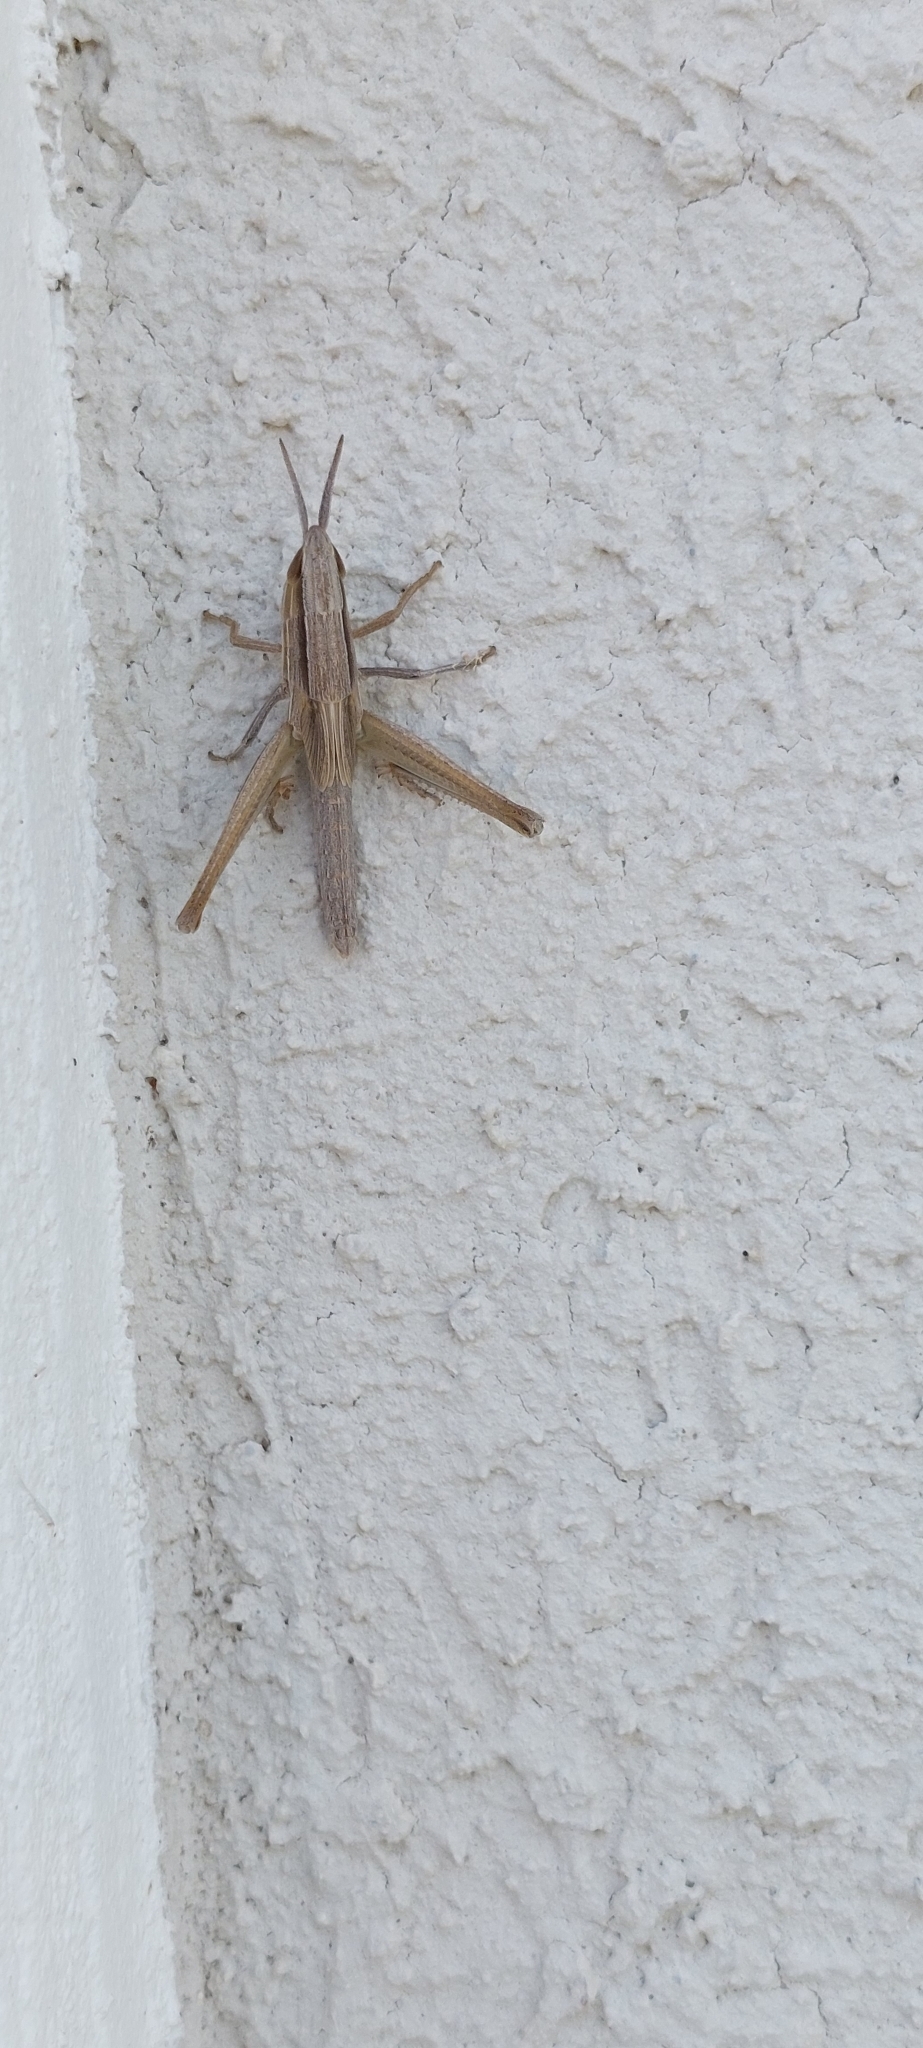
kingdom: Animalia
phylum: Arthropoda
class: Insecta
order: Orthoptera
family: Acrididae
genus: Sinipta
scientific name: Sinipta dalmani
